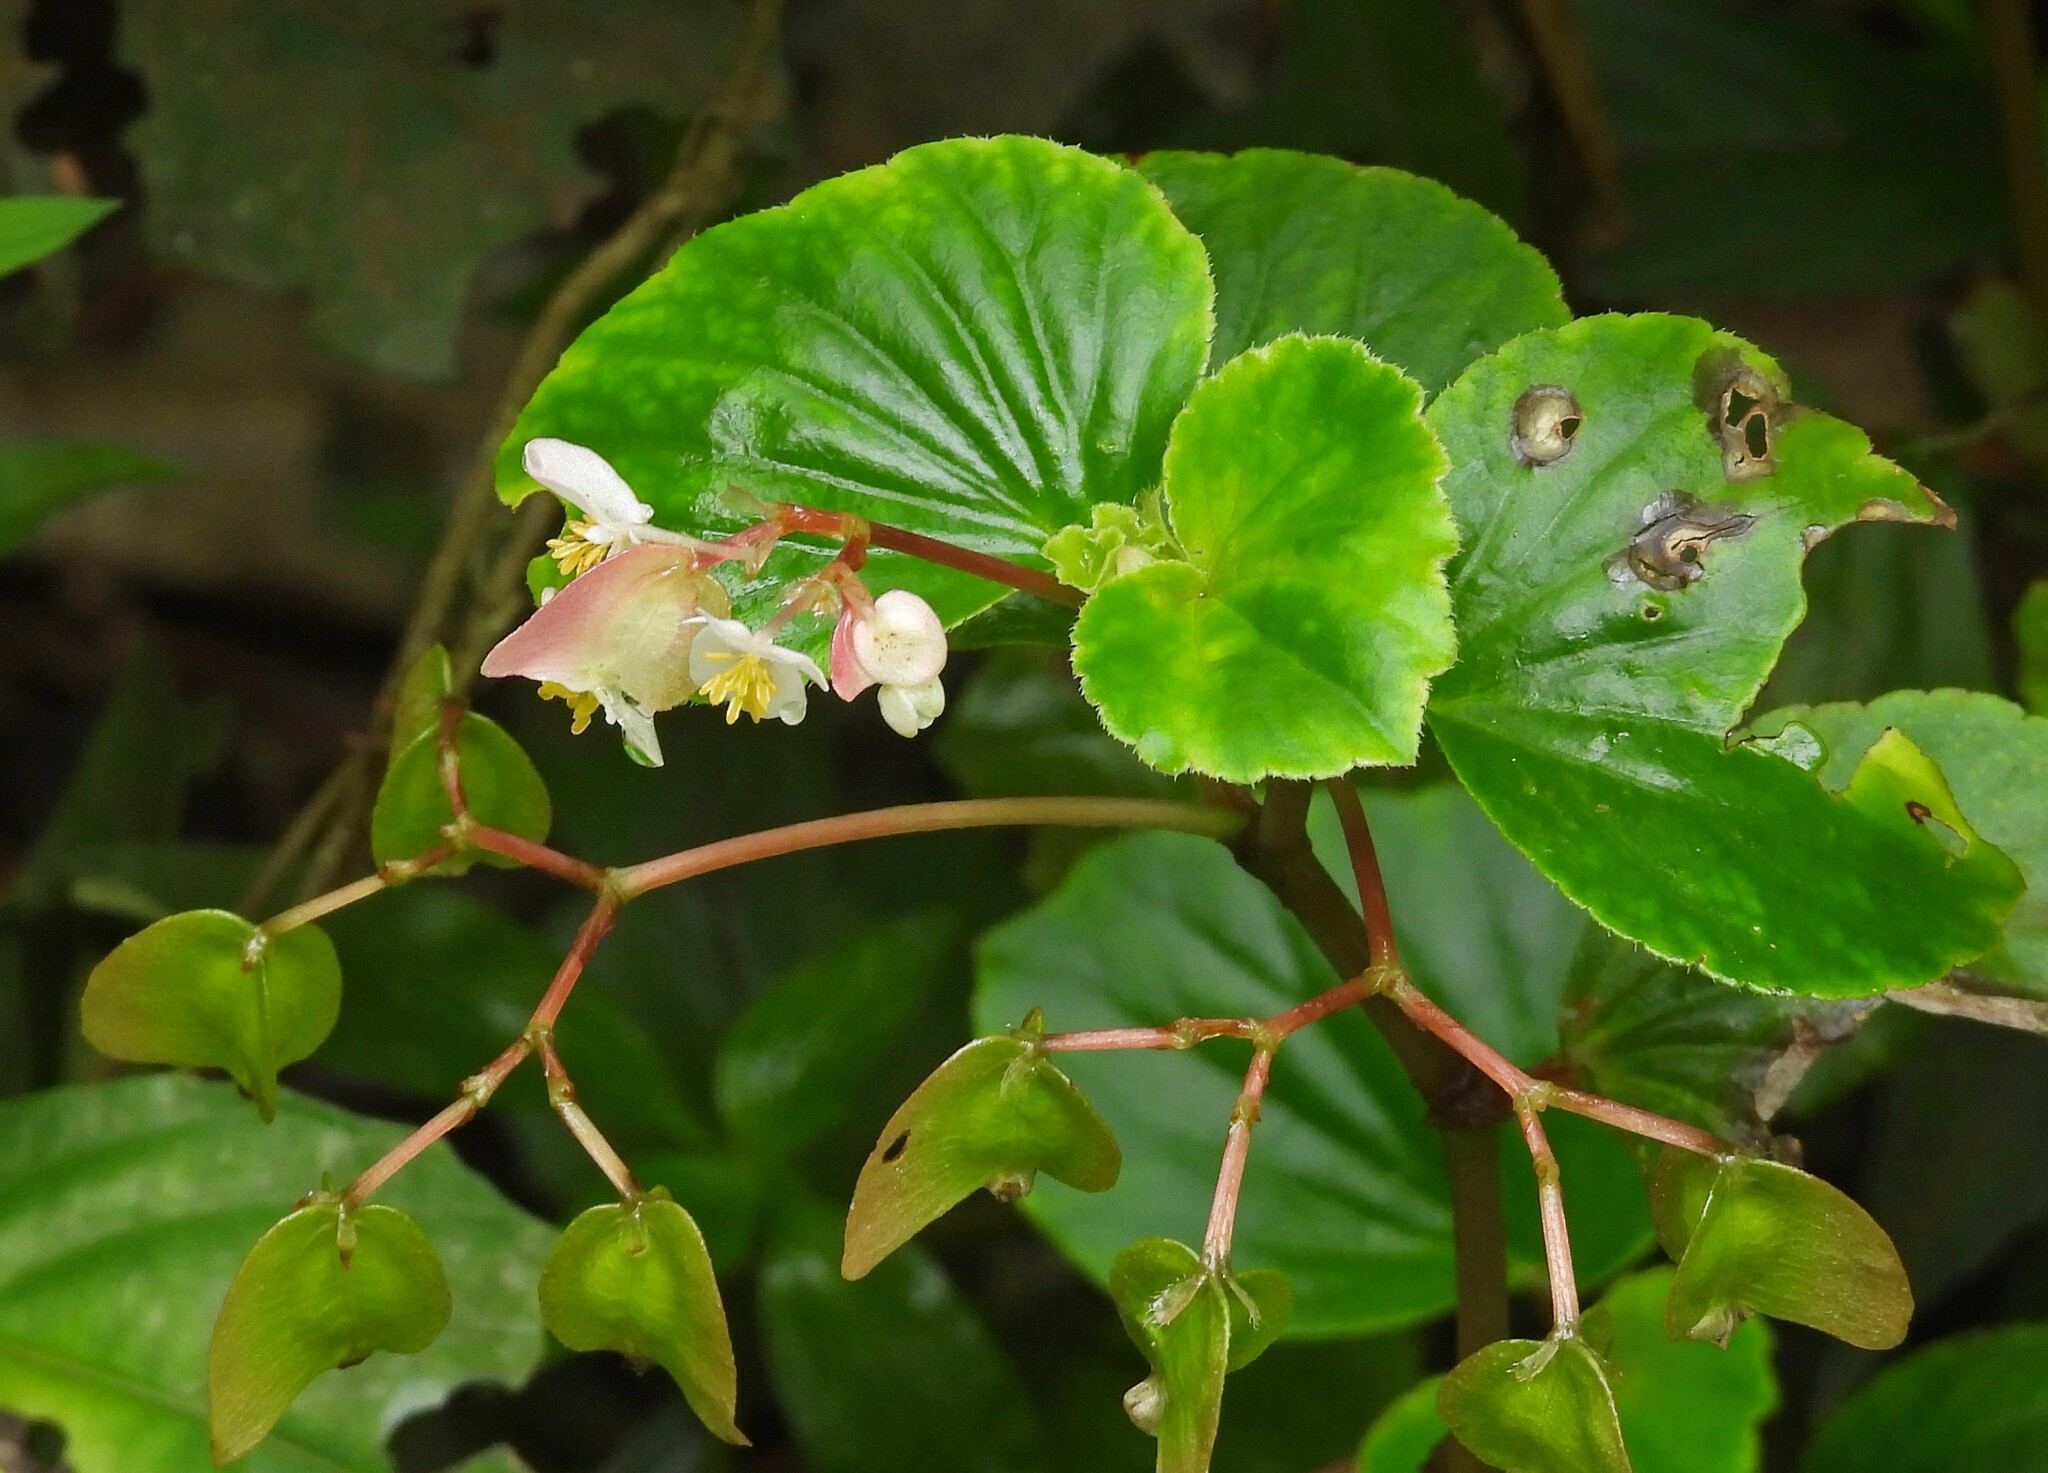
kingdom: Plantae
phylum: Tracheophyta
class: Magnoliopsida
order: Cucurbitales
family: Begoniaceae
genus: Begonia
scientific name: Begonia cucullata
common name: Clubbed begonia
